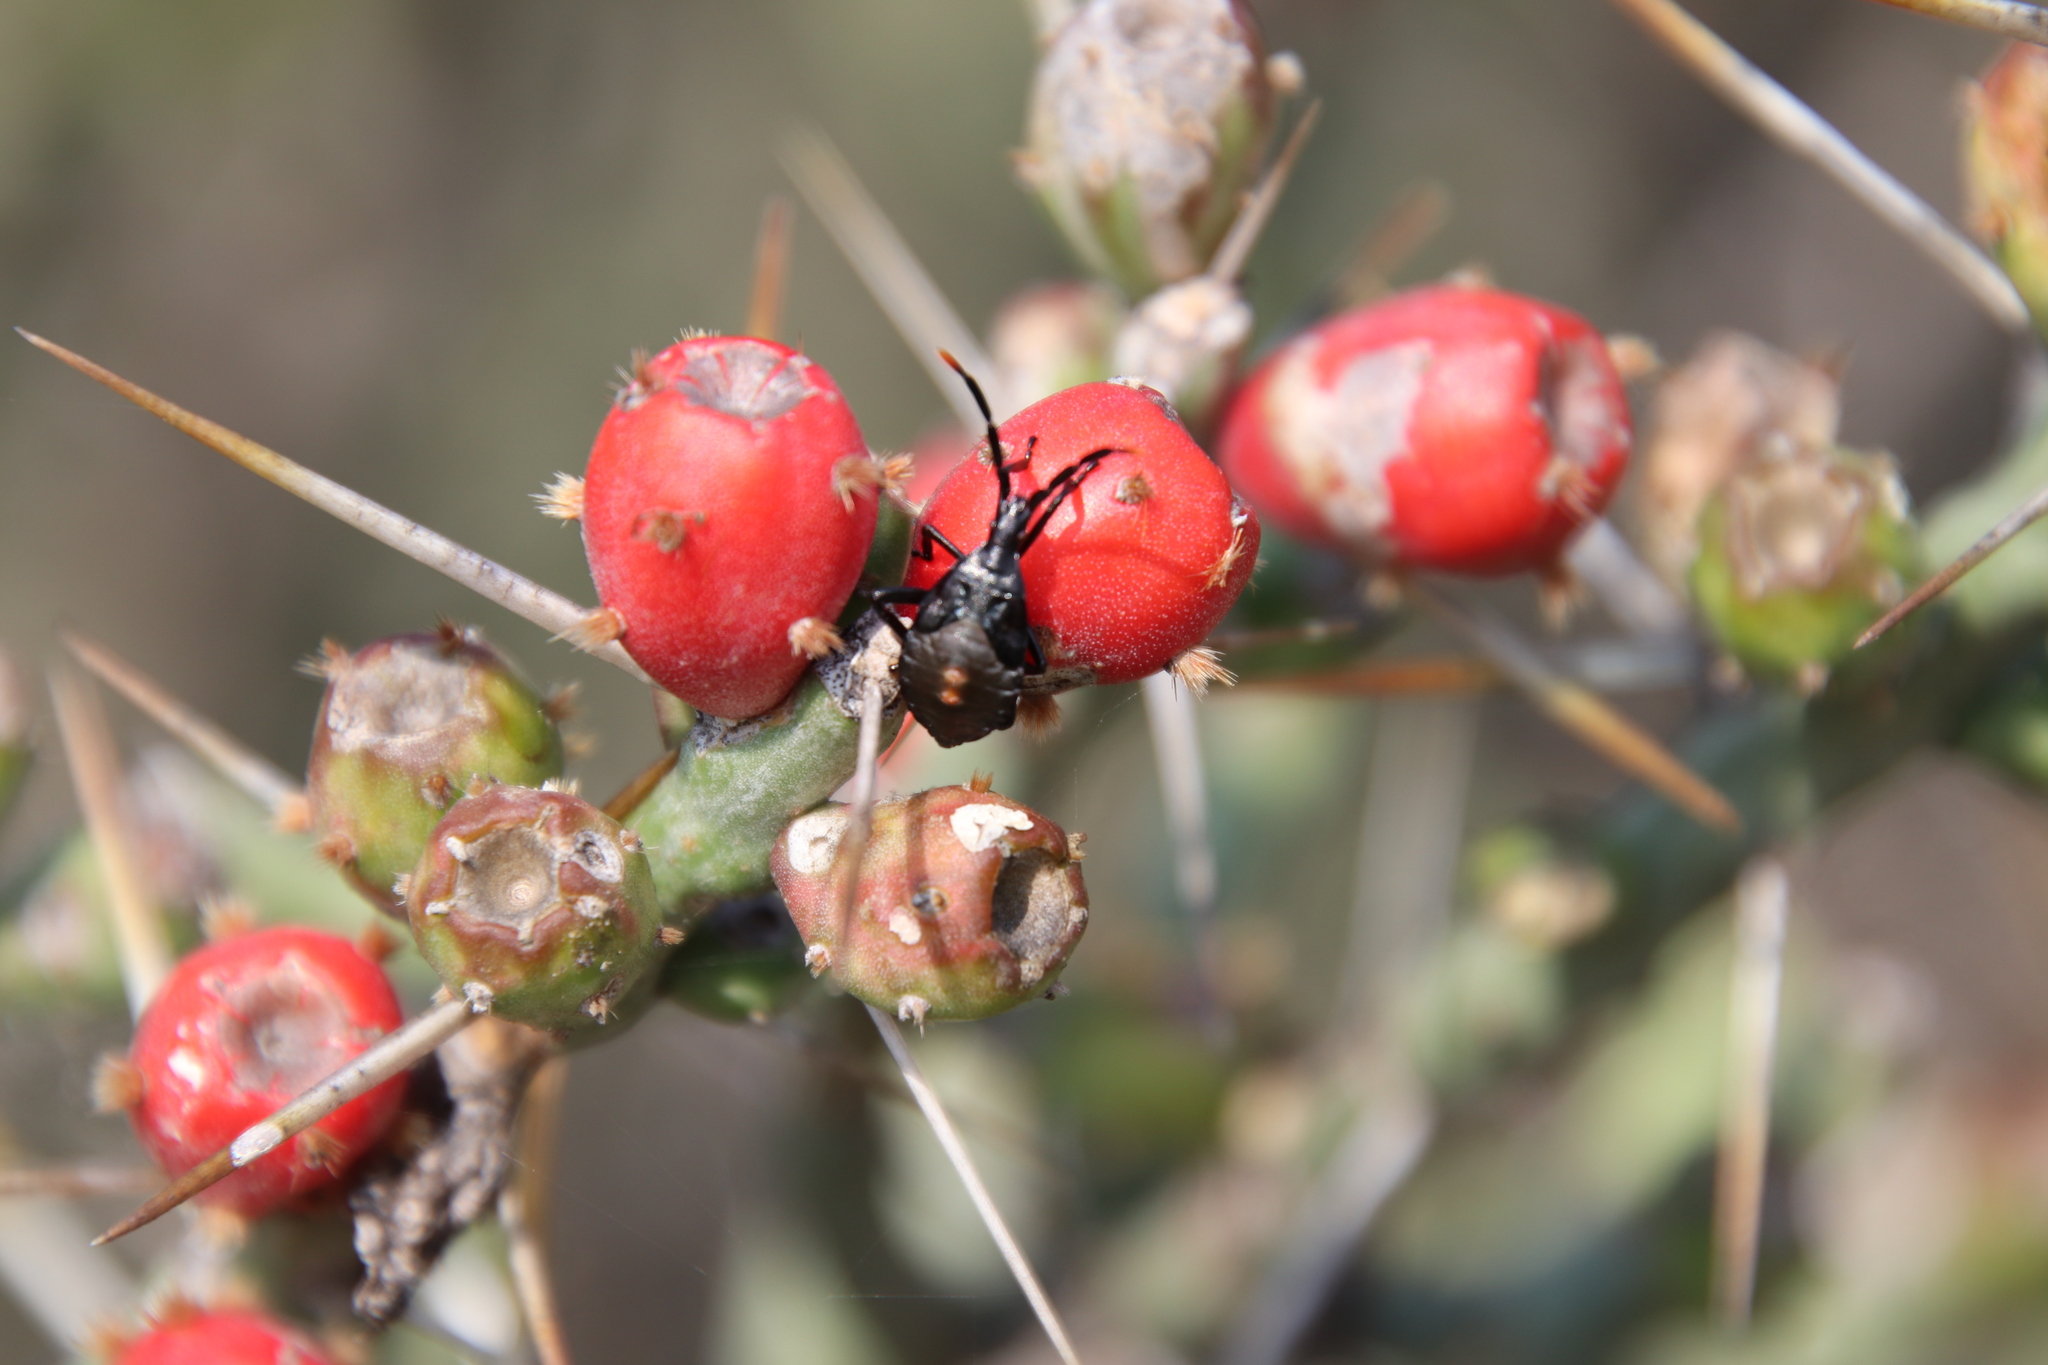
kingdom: Plantae
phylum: Tracheophyta
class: Magnoliopsida
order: Caryophyllales
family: Cactaceae
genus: Cylindropuntia
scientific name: Cylindropuntia leptocaulis
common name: Christmas cactus
